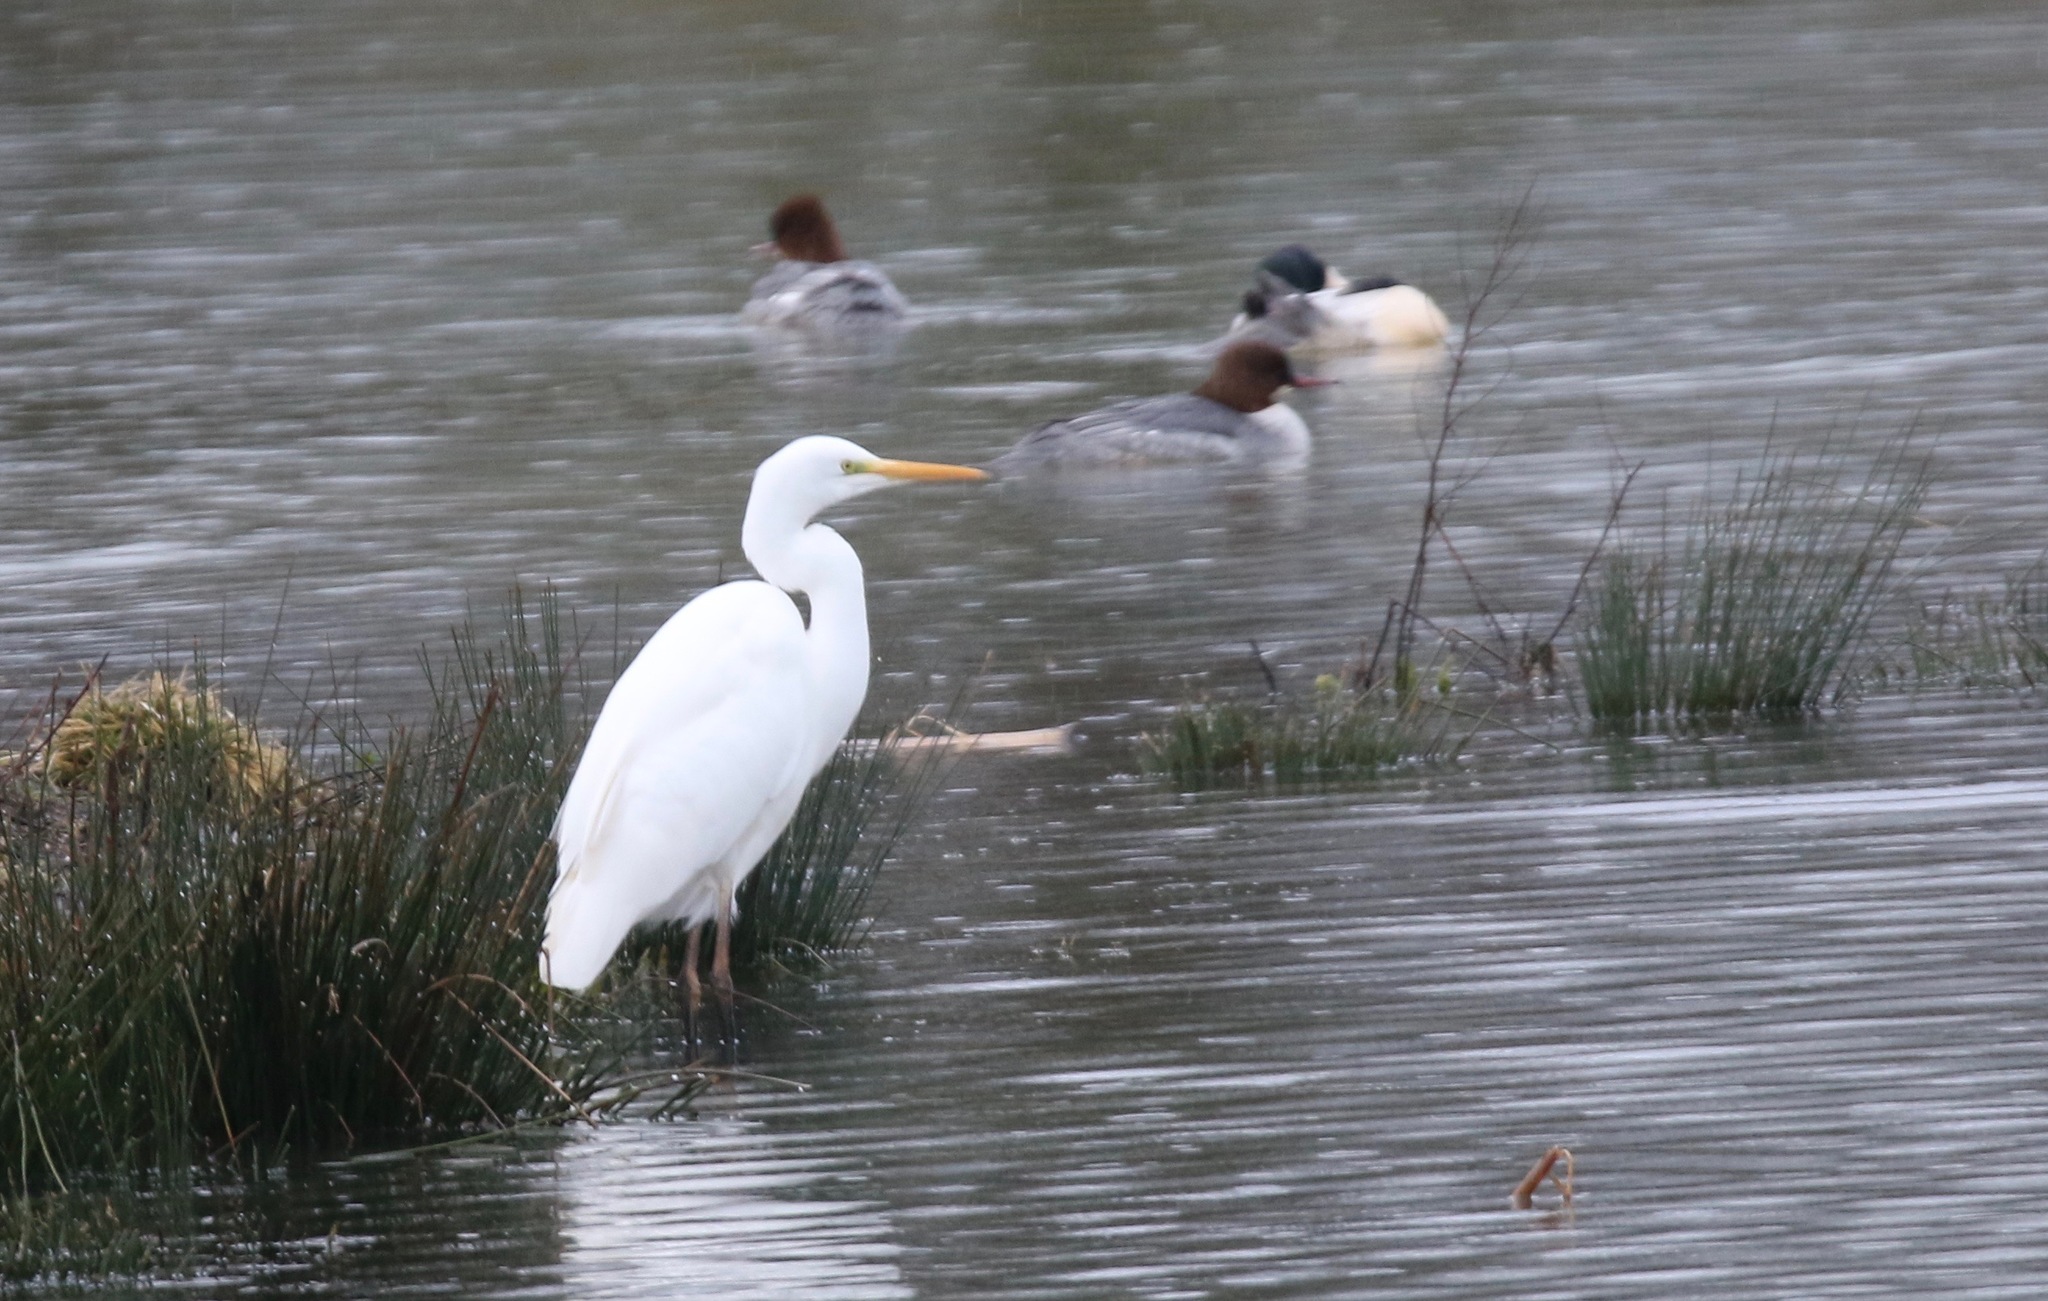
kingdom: Animalia
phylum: Chordata
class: Aves
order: Pelecaniformes
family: Ardeidae
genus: Ardea
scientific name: Ardea alba
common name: Great egret
